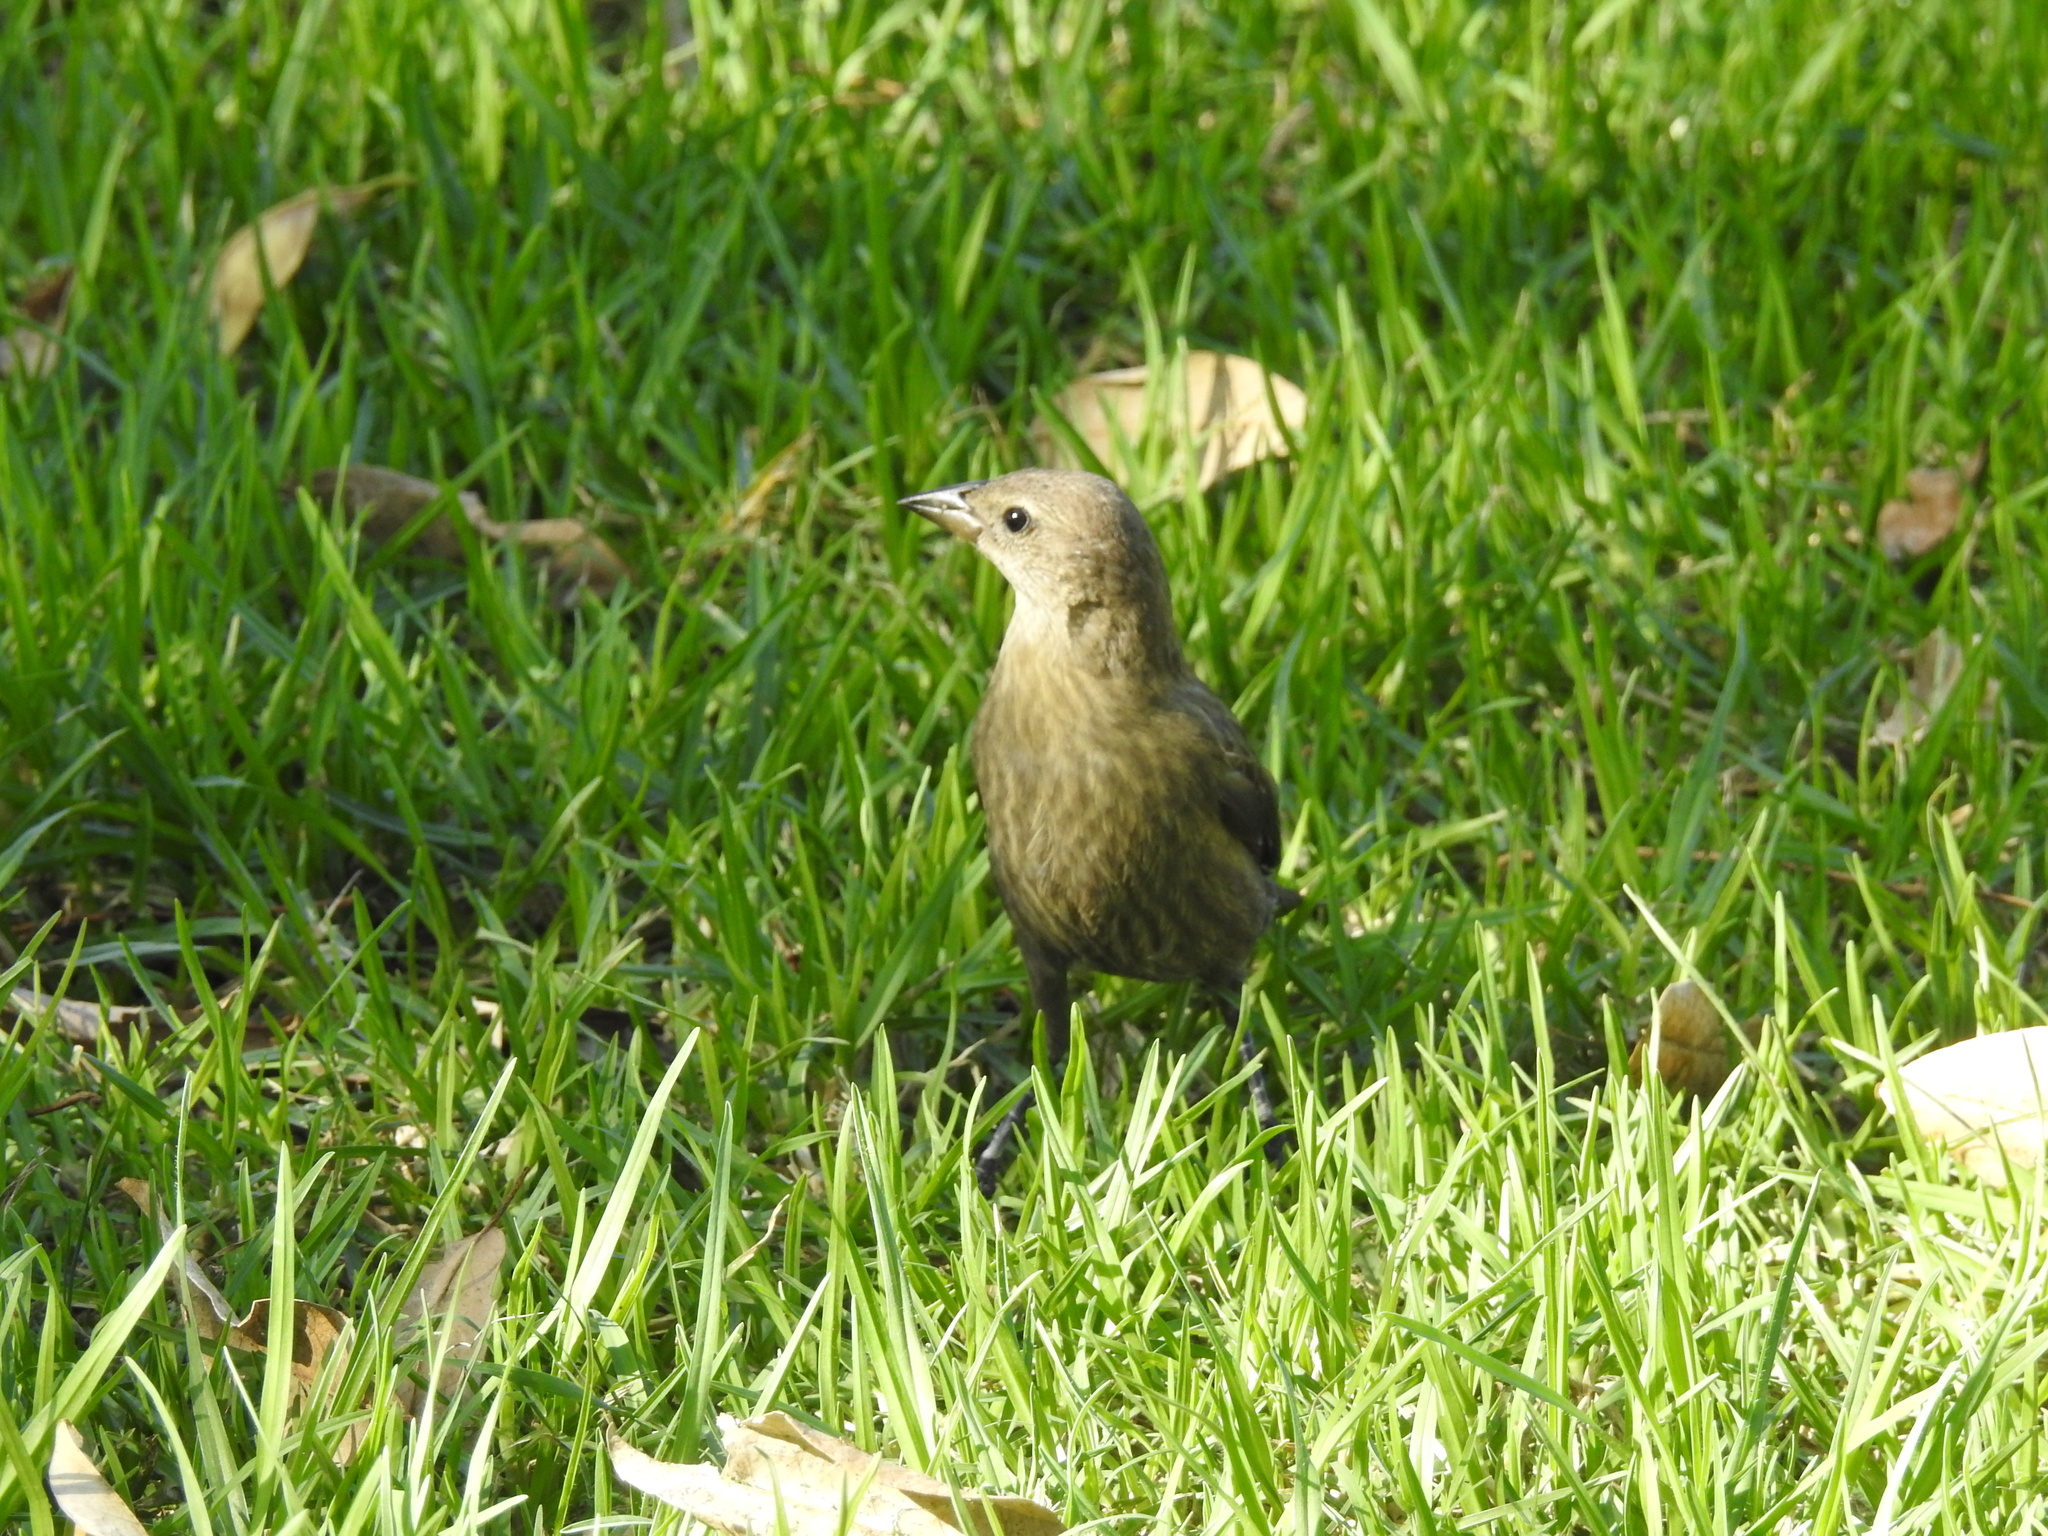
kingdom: Animalia
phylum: Chordata
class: Aves
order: Passeriformes
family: Icteridae
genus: Molothrus
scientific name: Molothrus bonariensis
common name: Shiny cowbird
